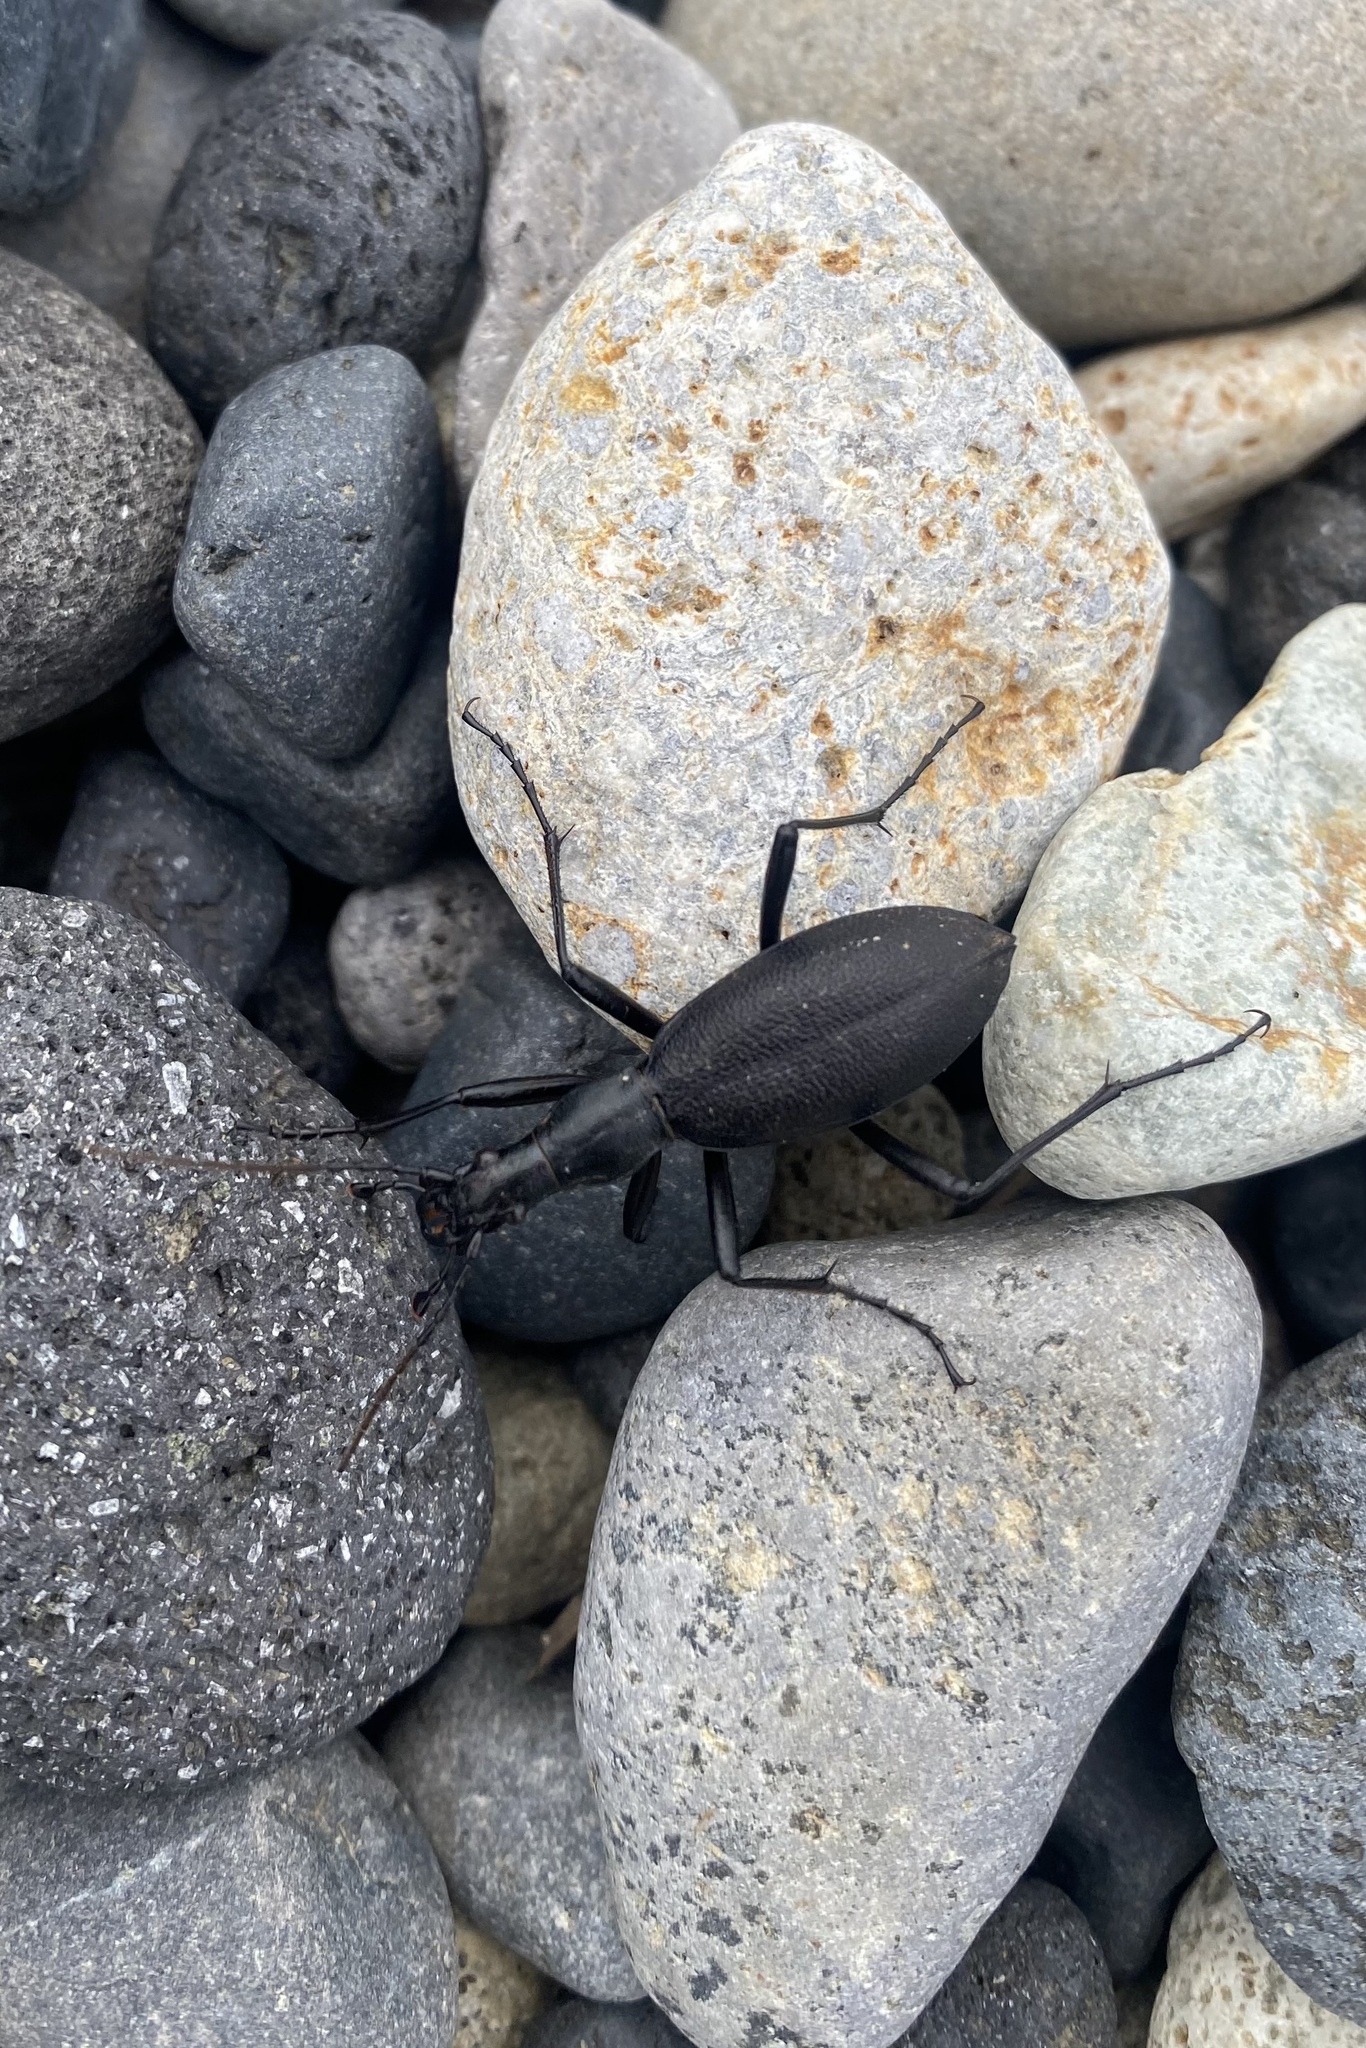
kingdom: Animalia
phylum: Arthropoda
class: Insecta
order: Coleoptera
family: Carabidae
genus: Carabus
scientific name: Carabus blaptoides
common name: Snail-eating beetle
